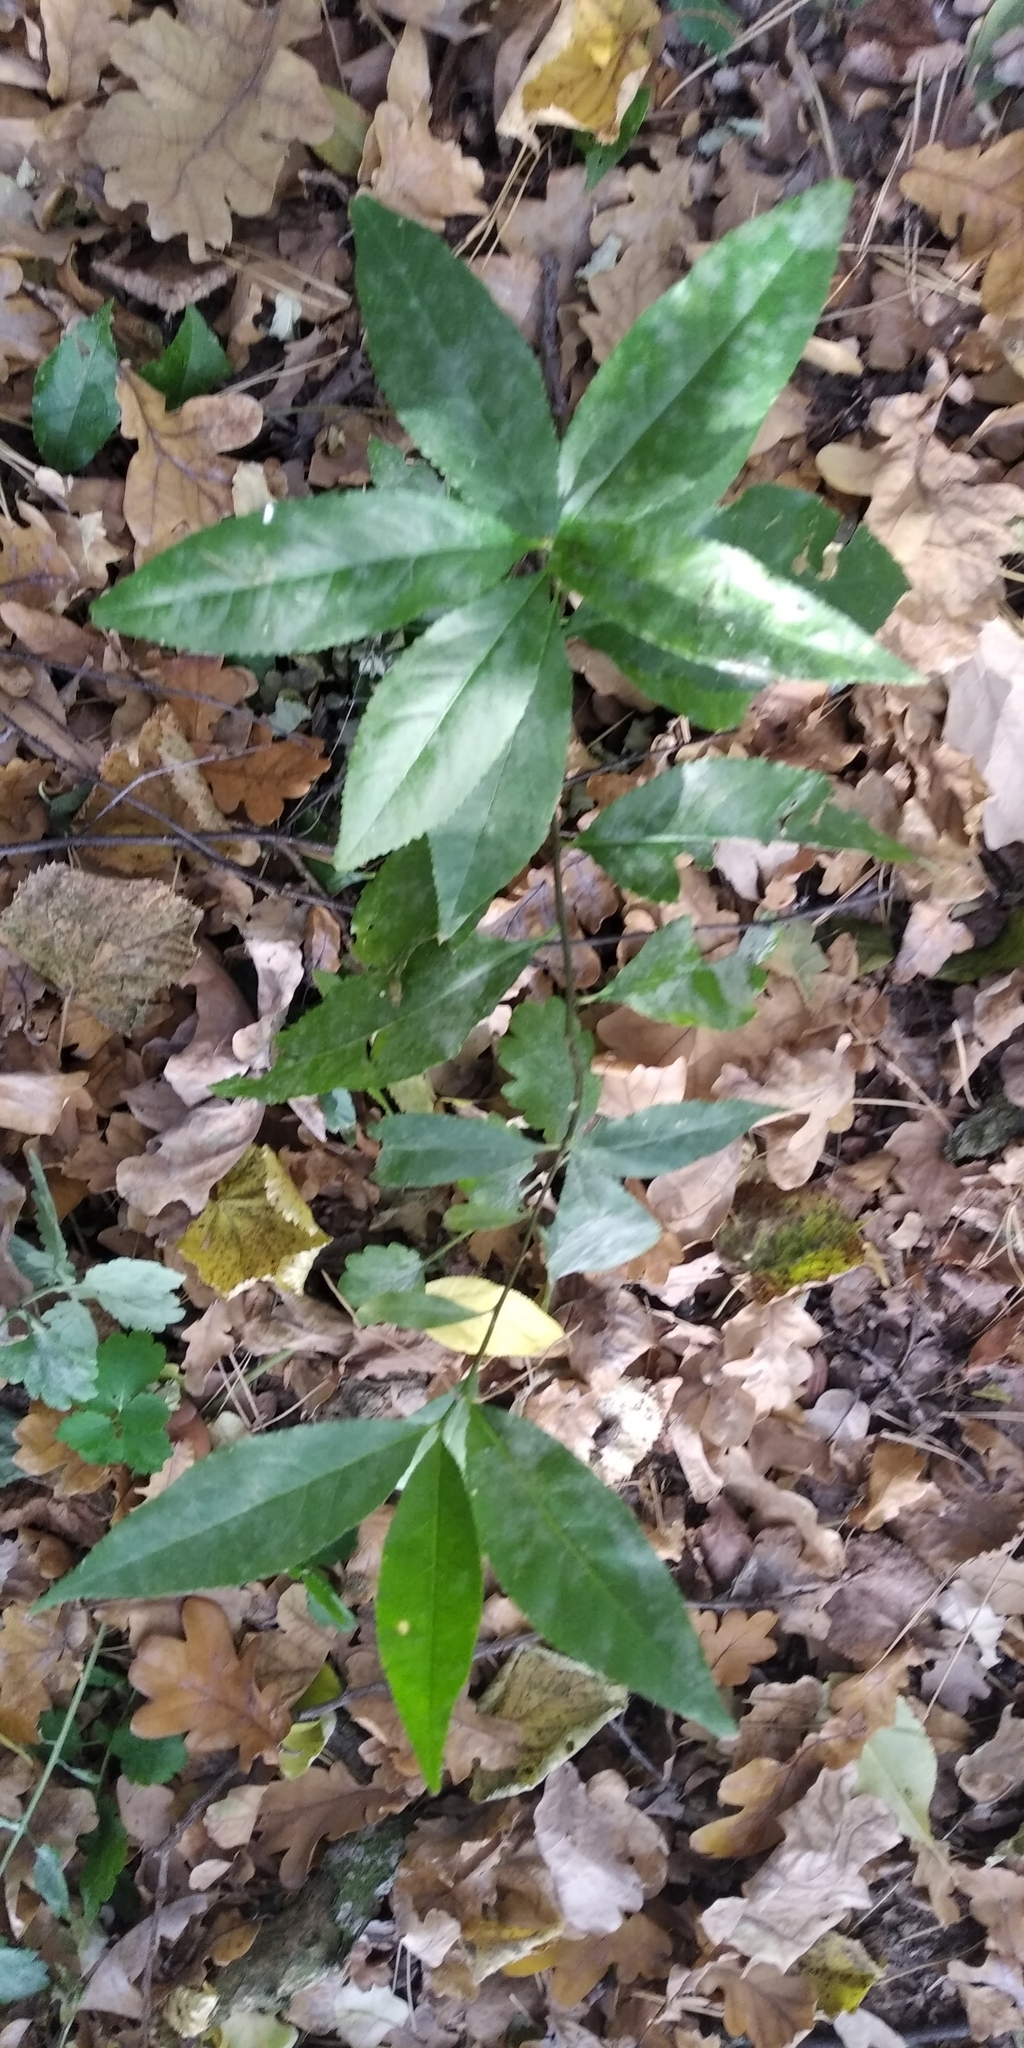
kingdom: Plantae
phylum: Tracheophyta
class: Magnoliopsida
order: Malpighiales
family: Euphorbiaceae
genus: Mercurialis
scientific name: Mercurialis perennis
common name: Dog mercury
